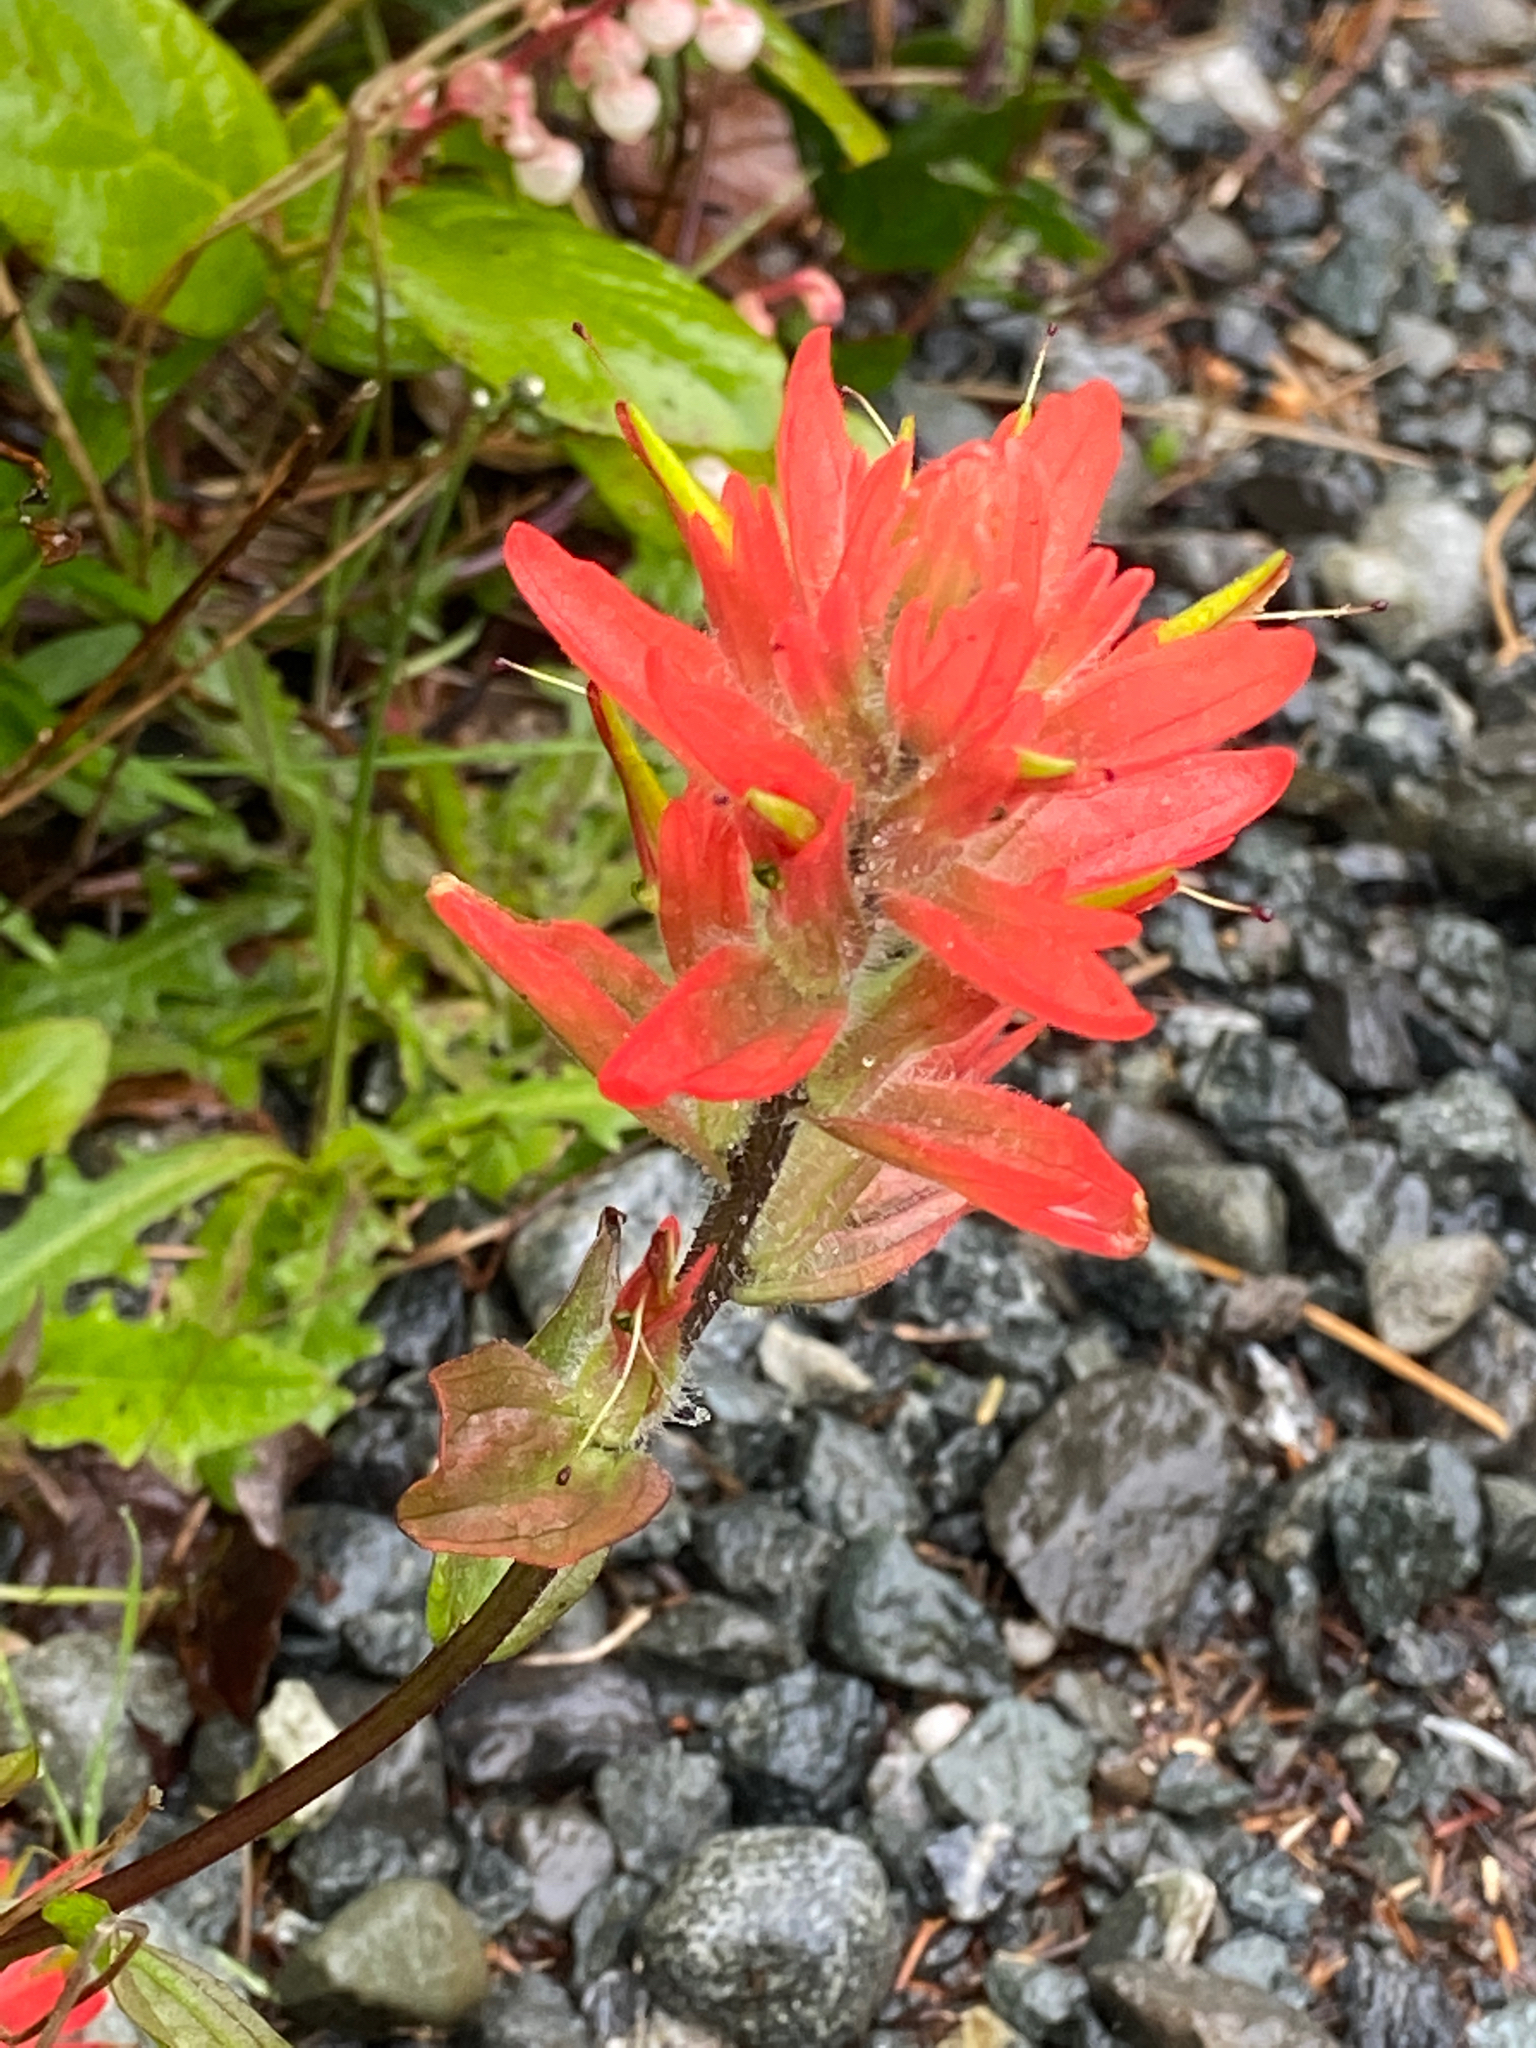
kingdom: Plantae
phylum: Tracheophyta
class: Magnoliopsida
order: Lamiales
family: Orobanchaceae
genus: Castilleja
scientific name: Castilleja miniata
